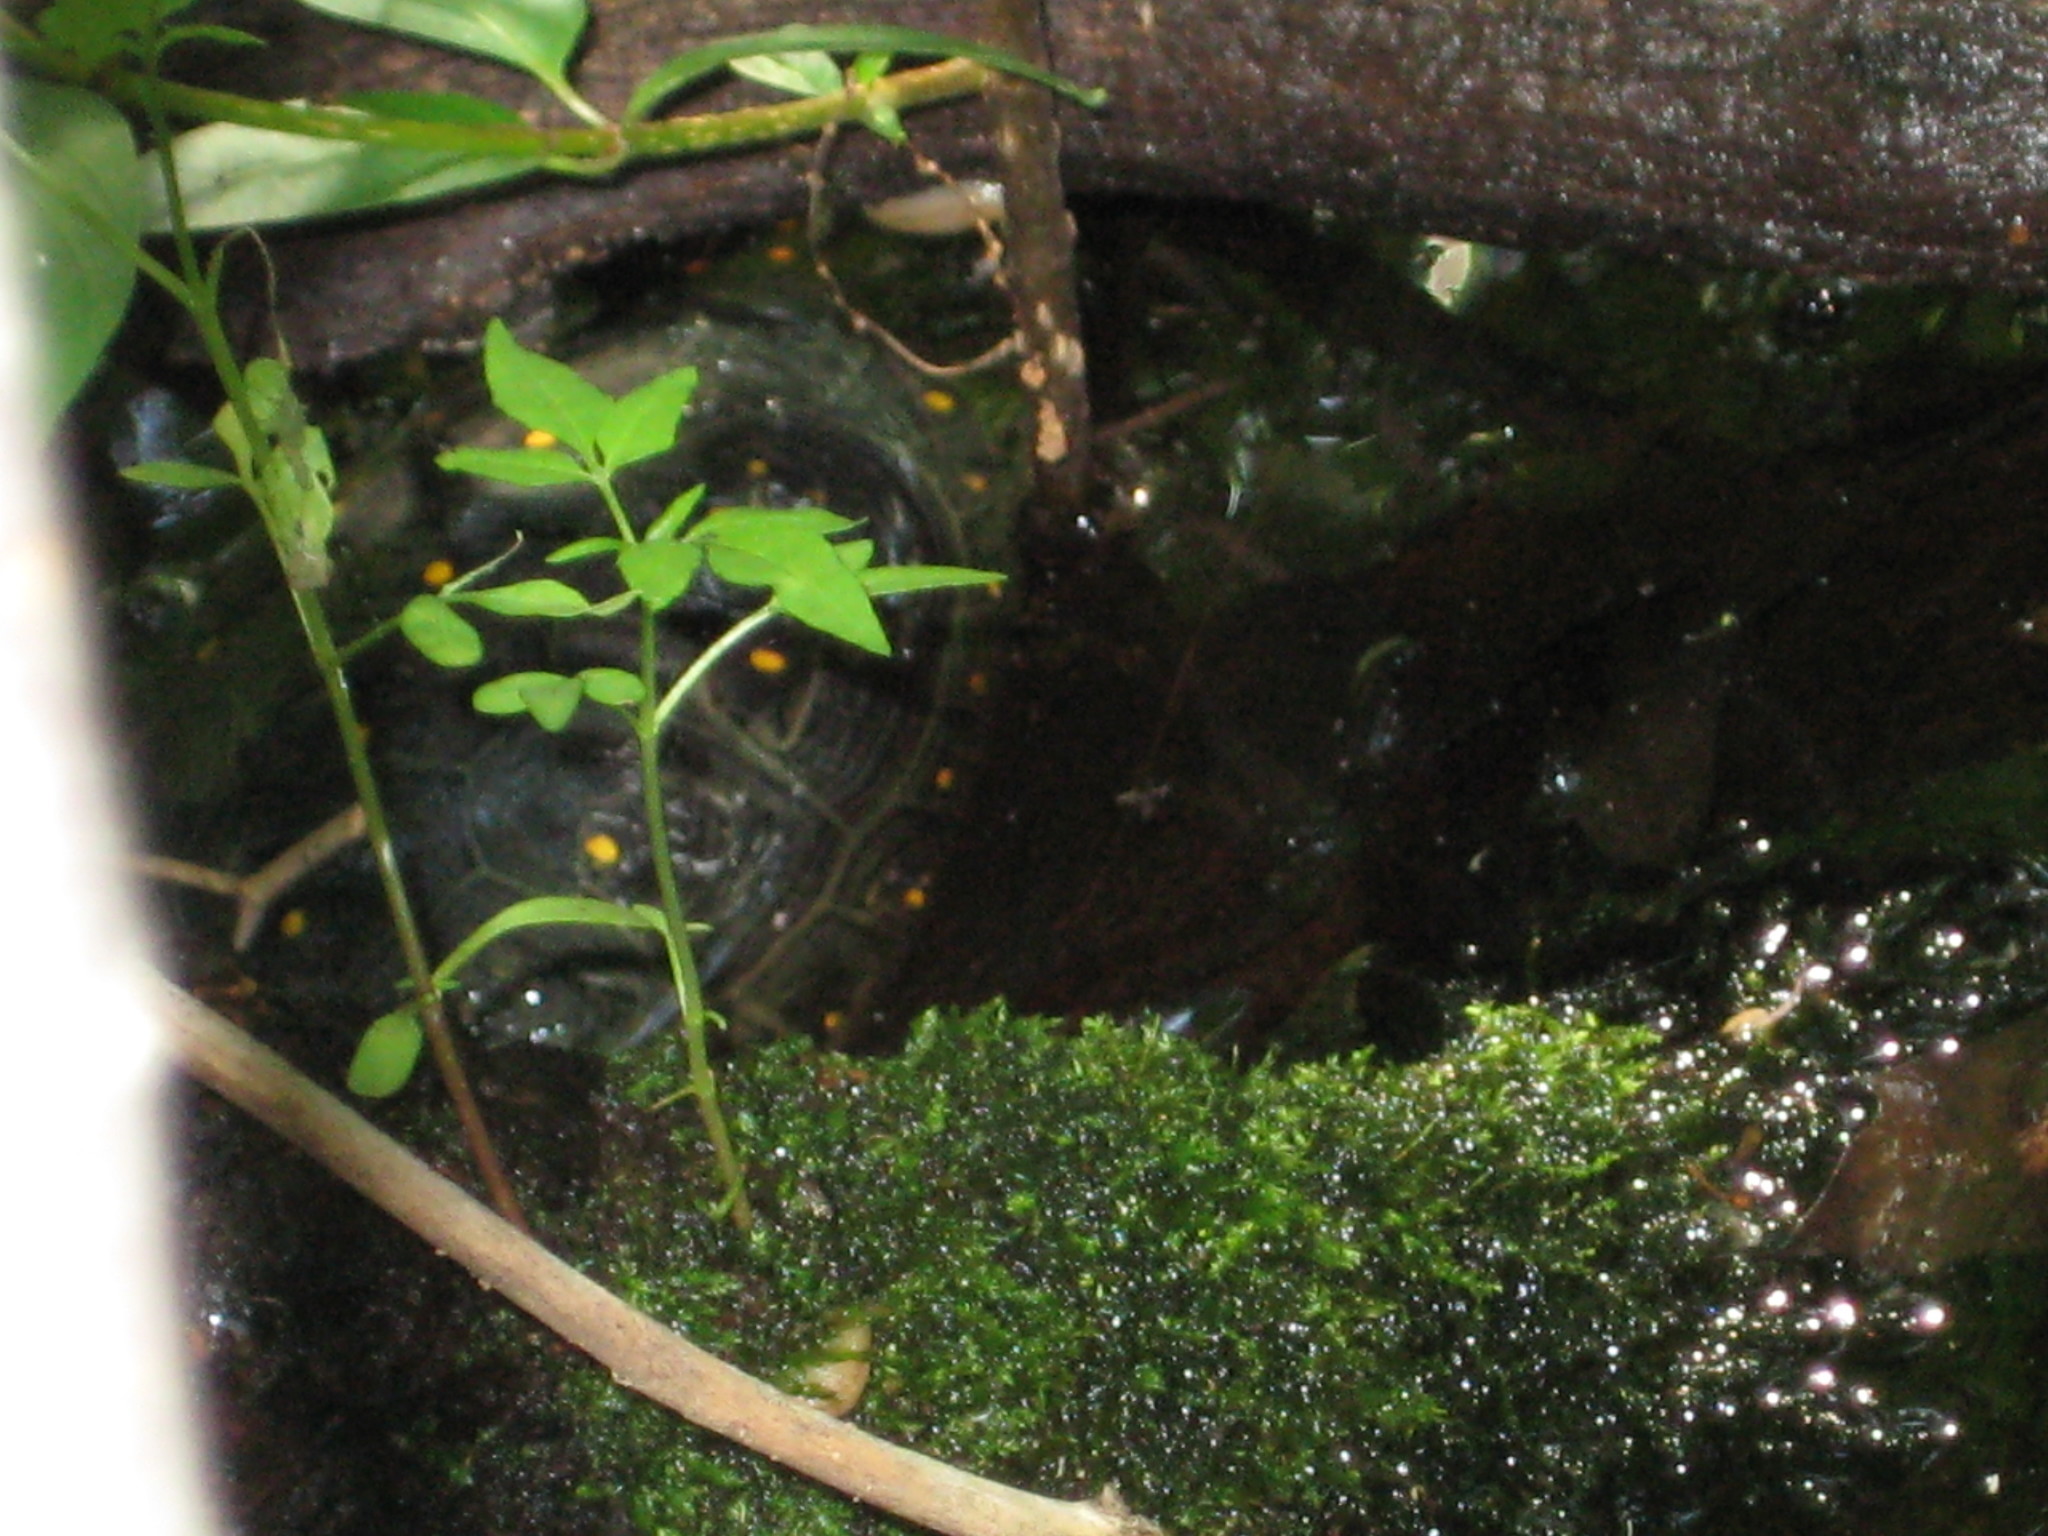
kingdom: Animalia
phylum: Chordata
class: Testudines
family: Emydidae
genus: Clemmys
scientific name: Clemmys guttata
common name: Spotted turtle
